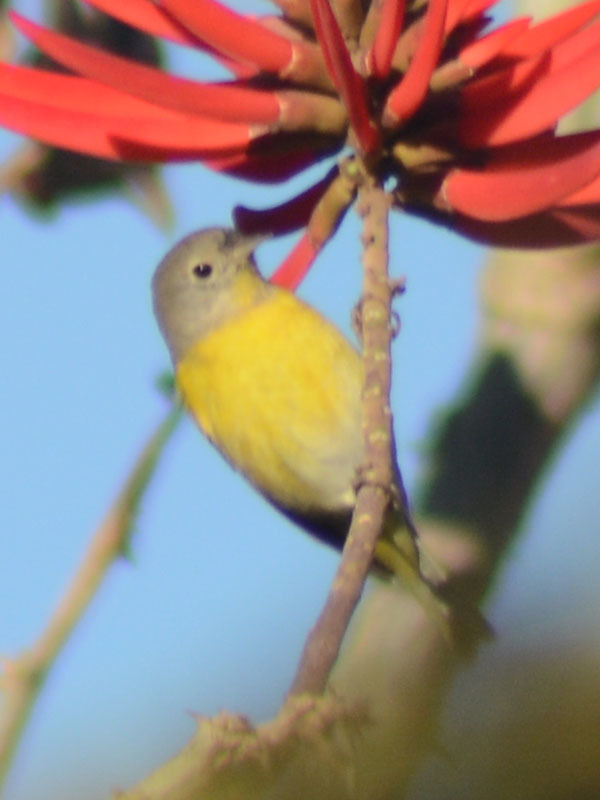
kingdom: Animalia
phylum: Chordata
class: Aves
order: Passeriformes
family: Parulidae
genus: Leiothlypis
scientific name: Leiothlypis ruficapilla
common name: Nashville warbler
